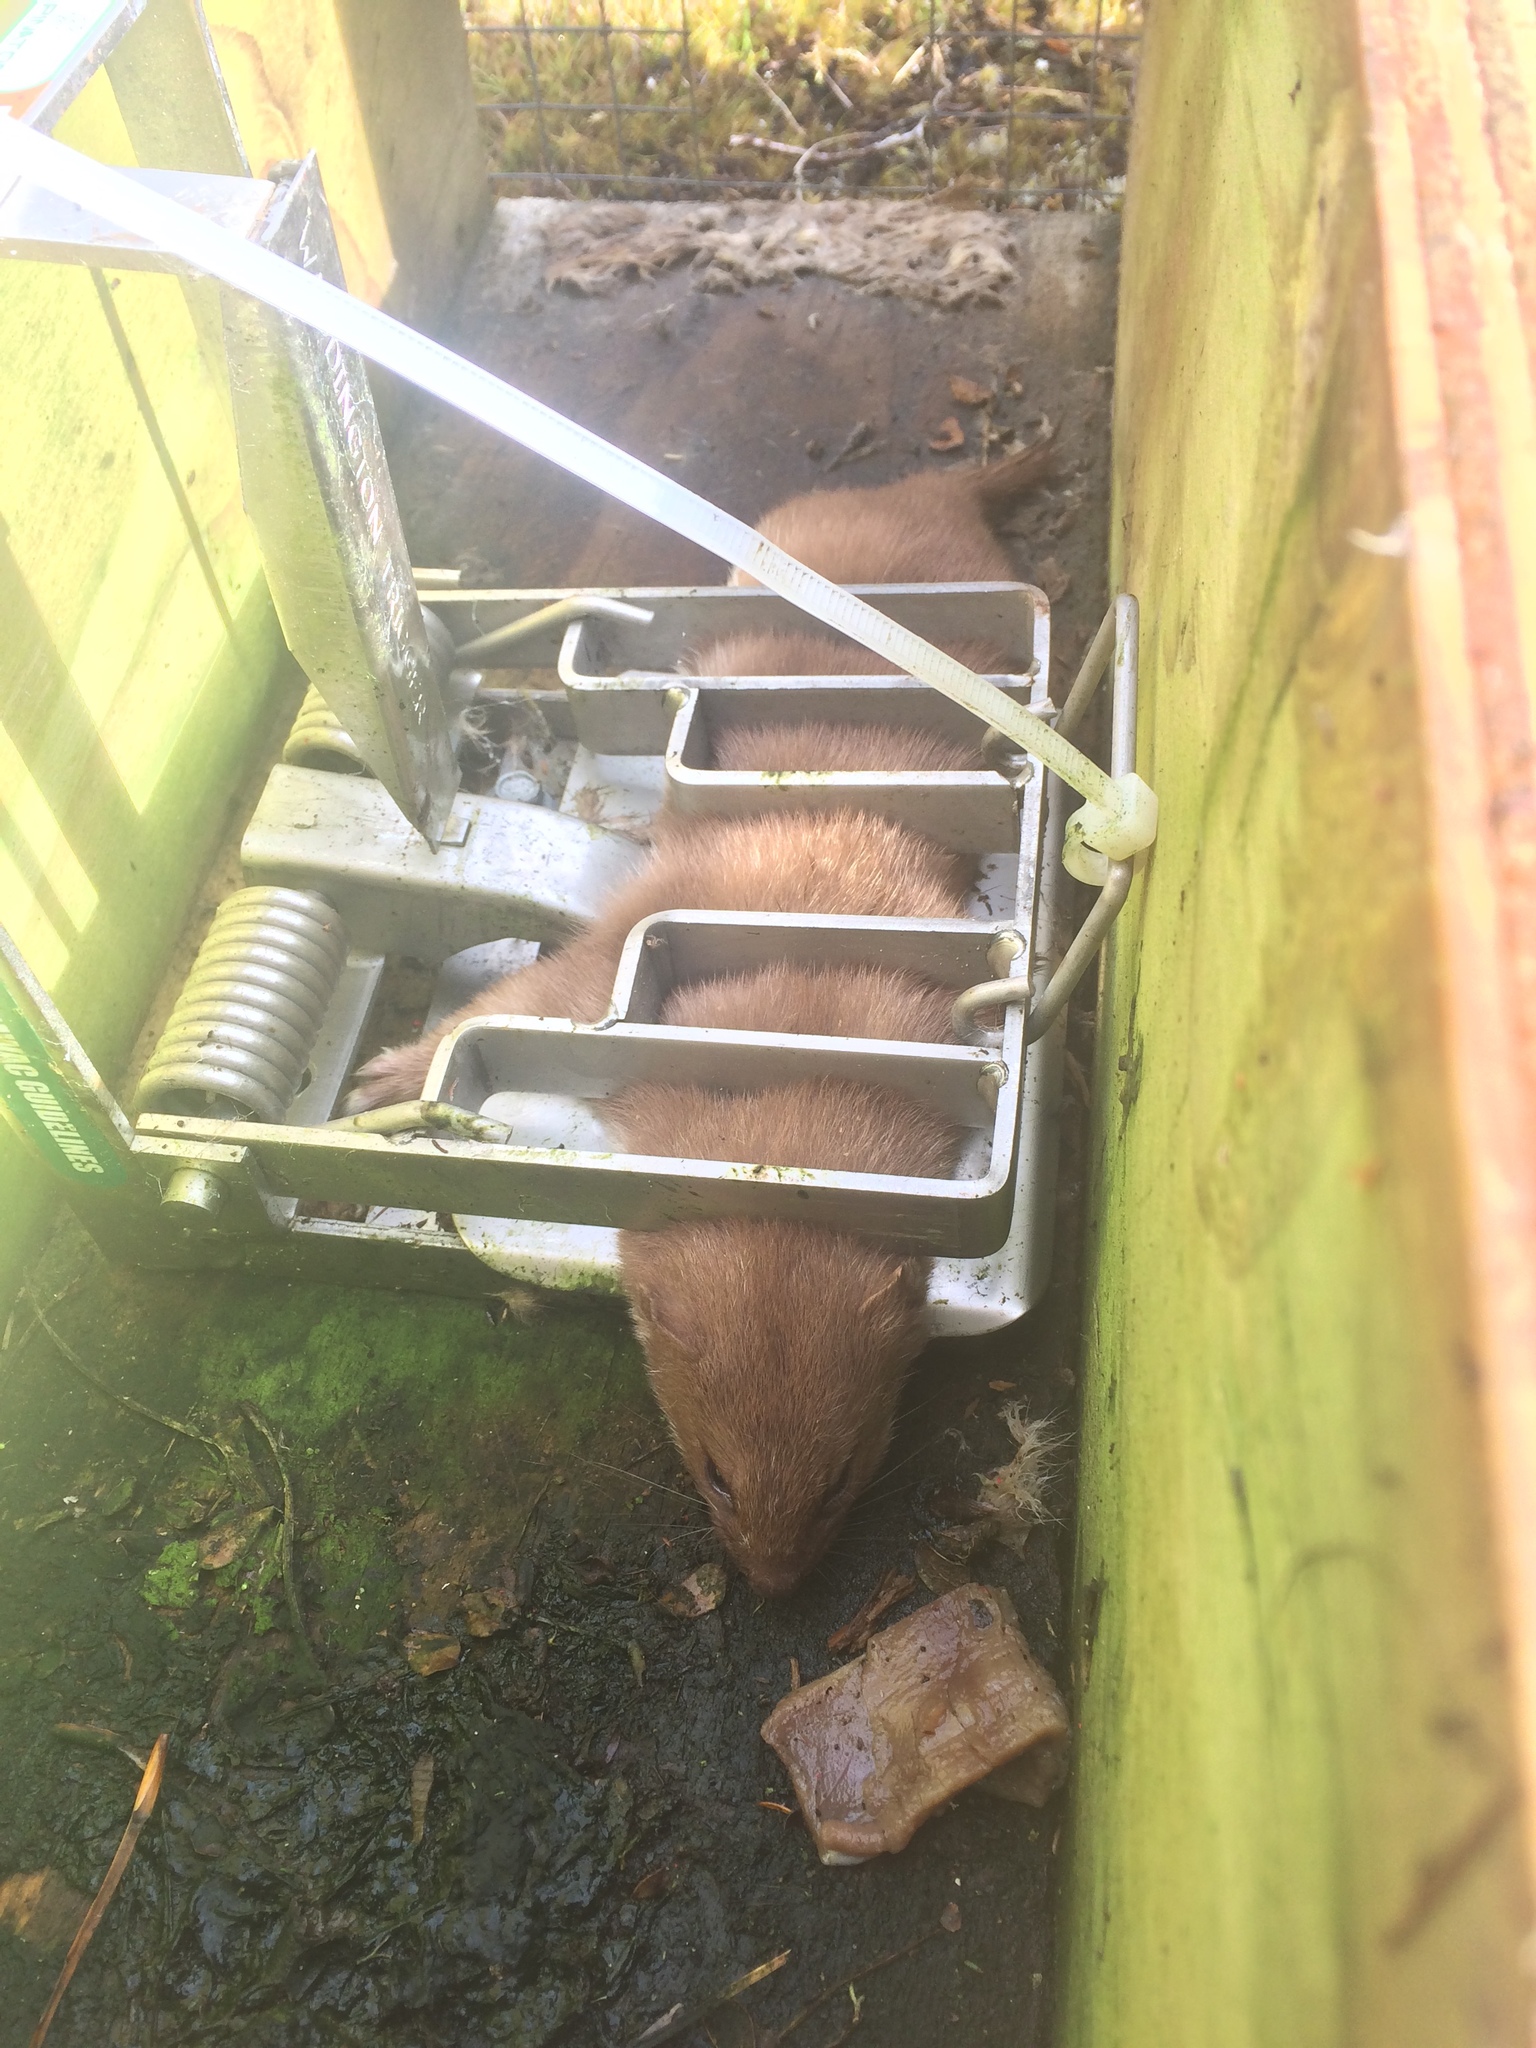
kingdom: Animalia
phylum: Chordata
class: Mammalia
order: Carnivora
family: Mustelidae
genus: Mustela
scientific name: Mustela nivalis
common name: Least weasel
